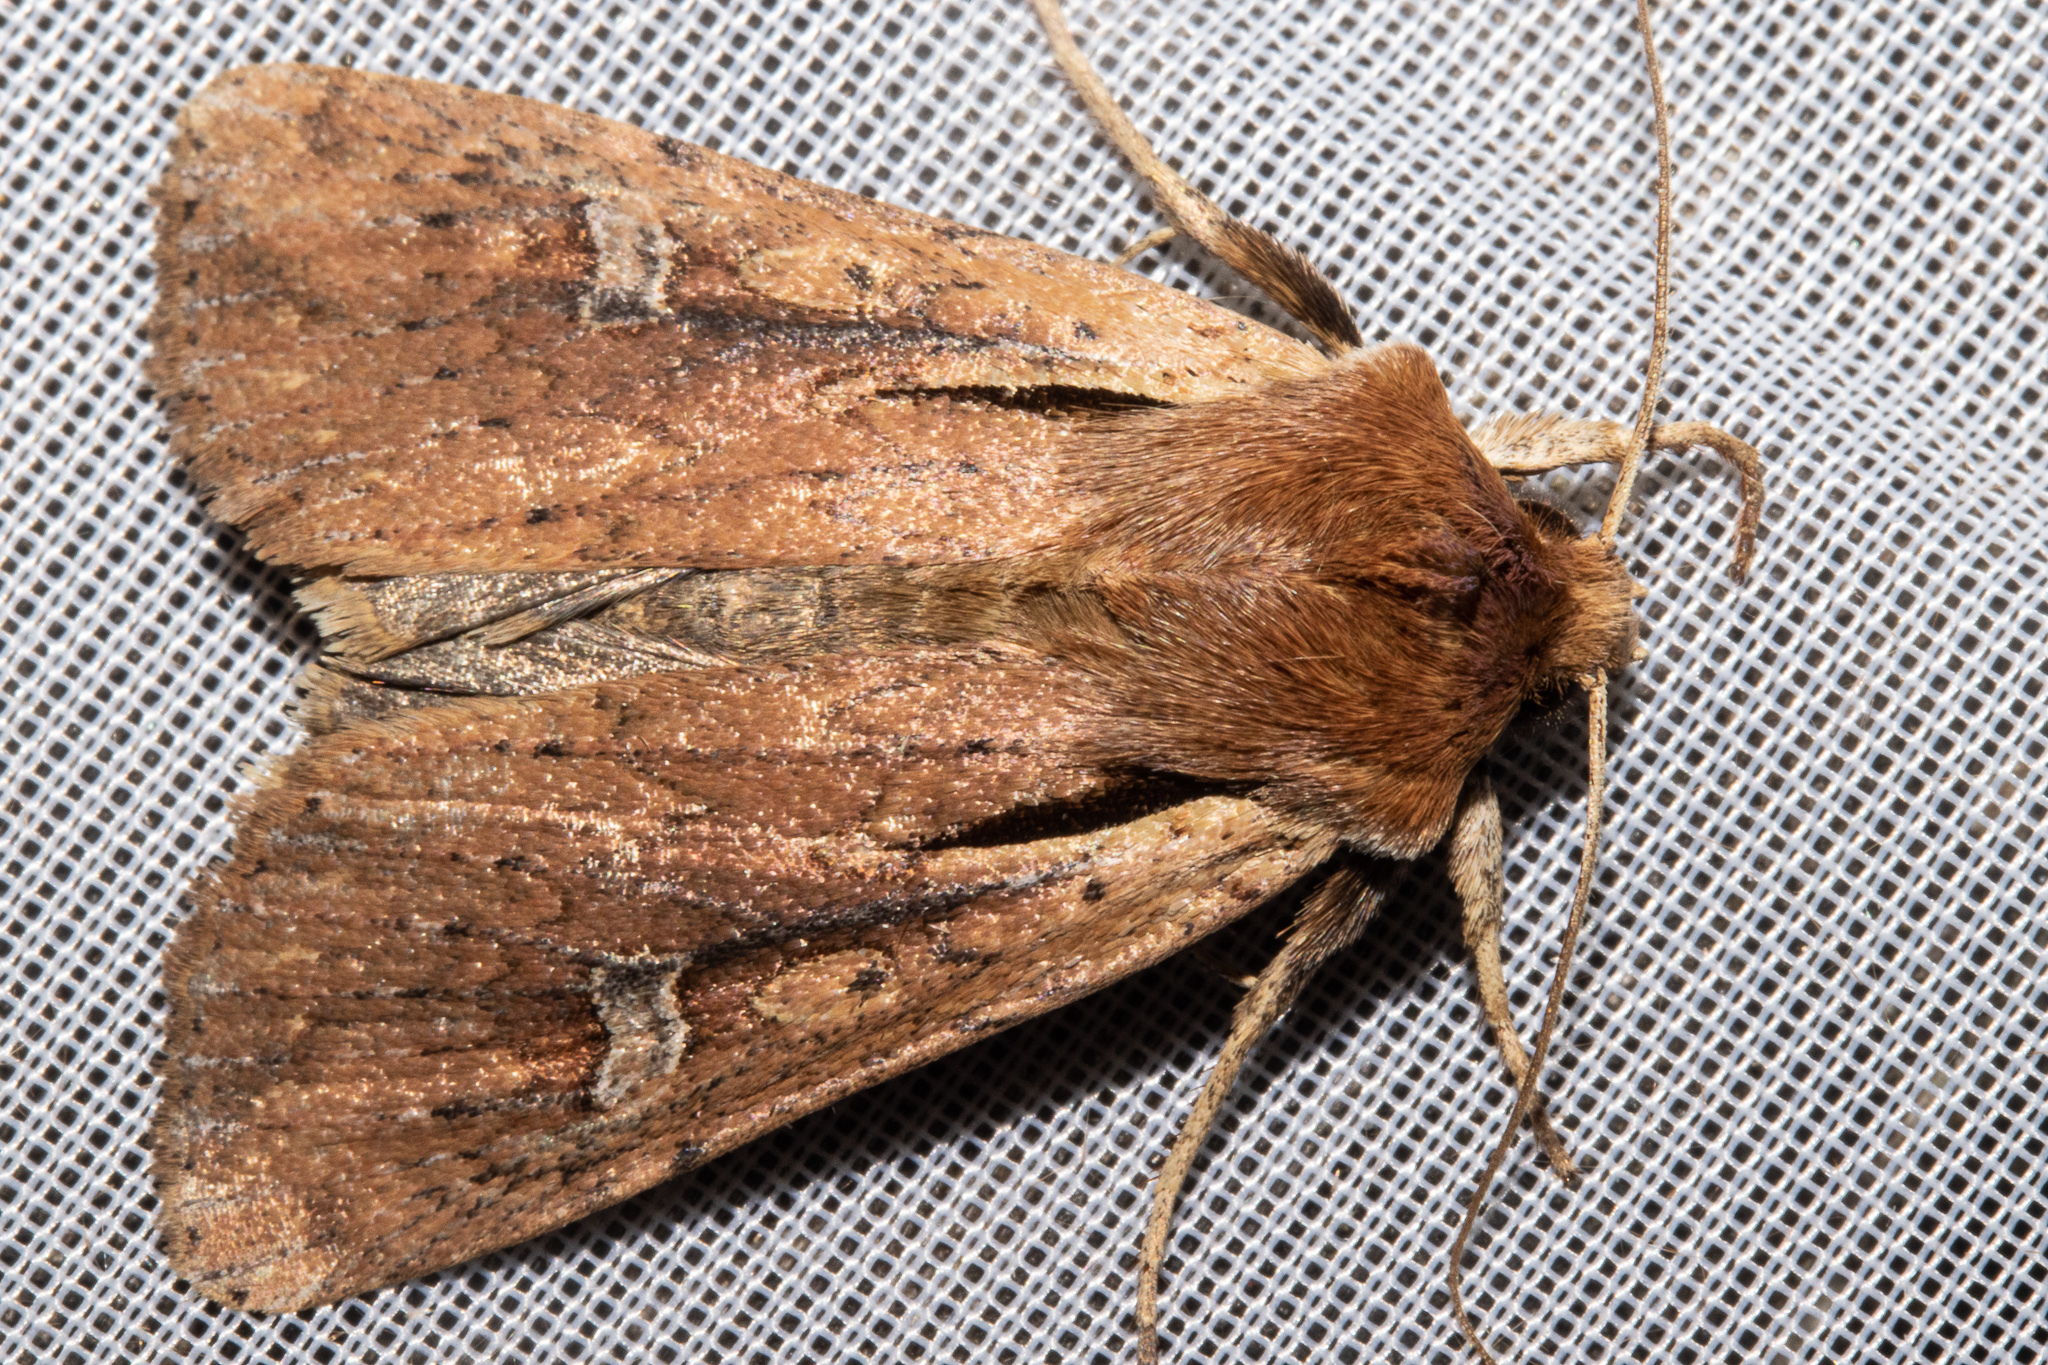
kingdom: Animalia
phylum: Arthropoda
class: Insecta
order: Lepidoptera
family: Noctuidae
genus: Ichneutica
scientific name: Ichneutica atristriga
